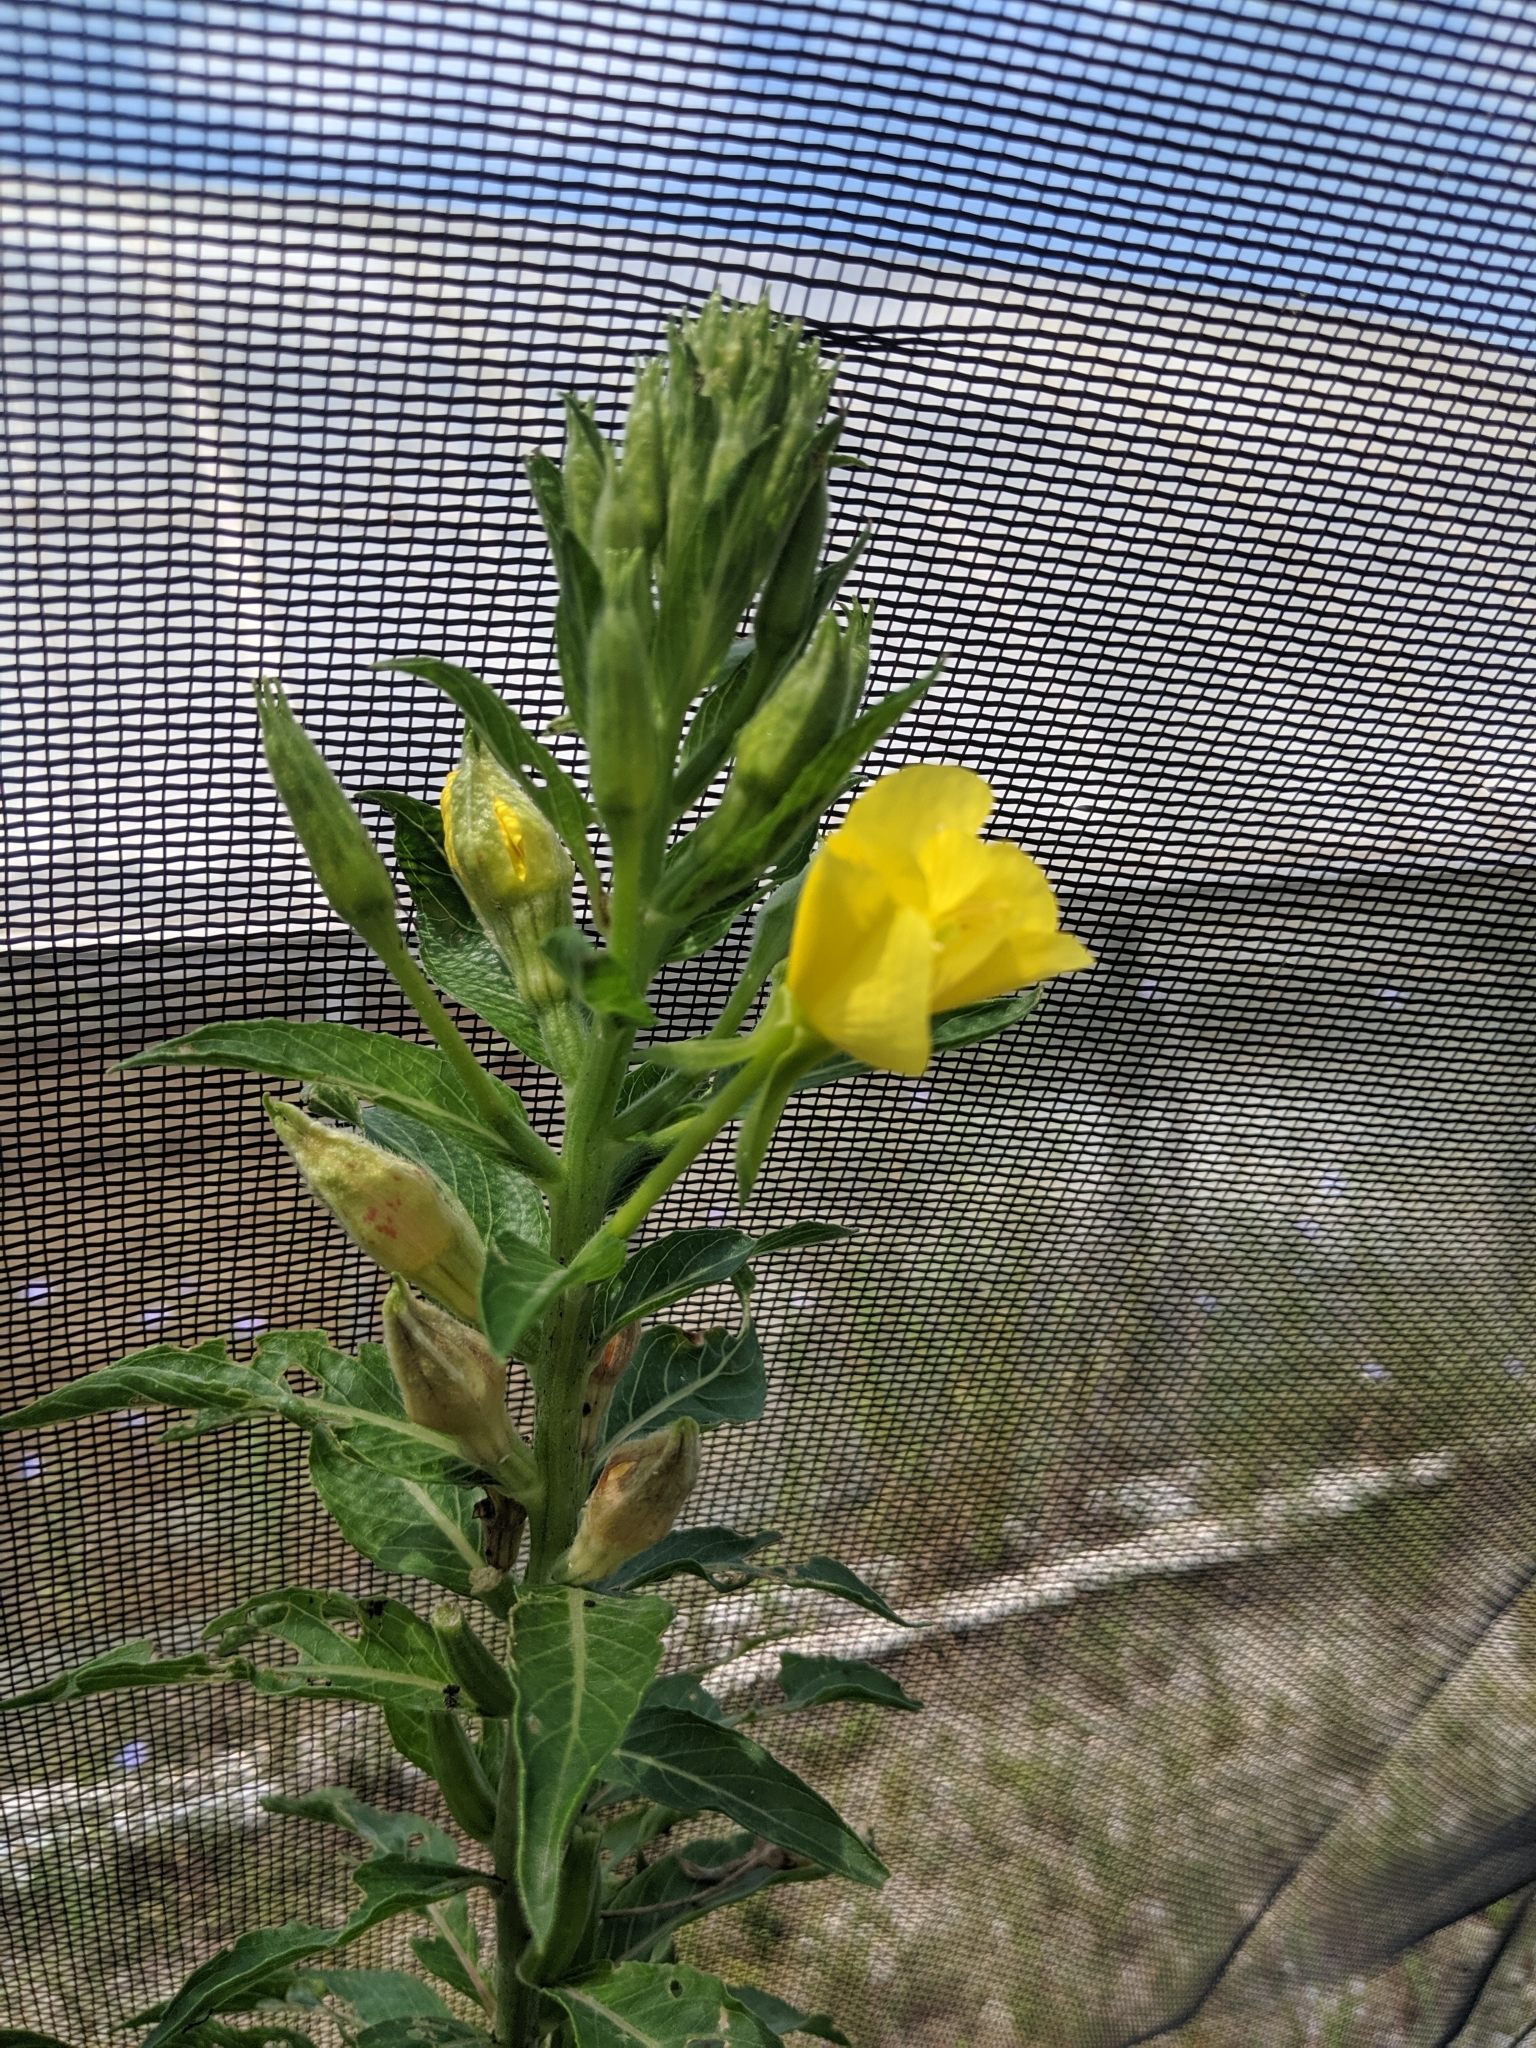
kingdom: Plantae
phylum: Tracheophyta
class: Magnoliopsida
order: Myrtales
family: Onagraceae
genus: Oenothera
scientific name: Oenothera biennis
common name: Common evening-primrose
